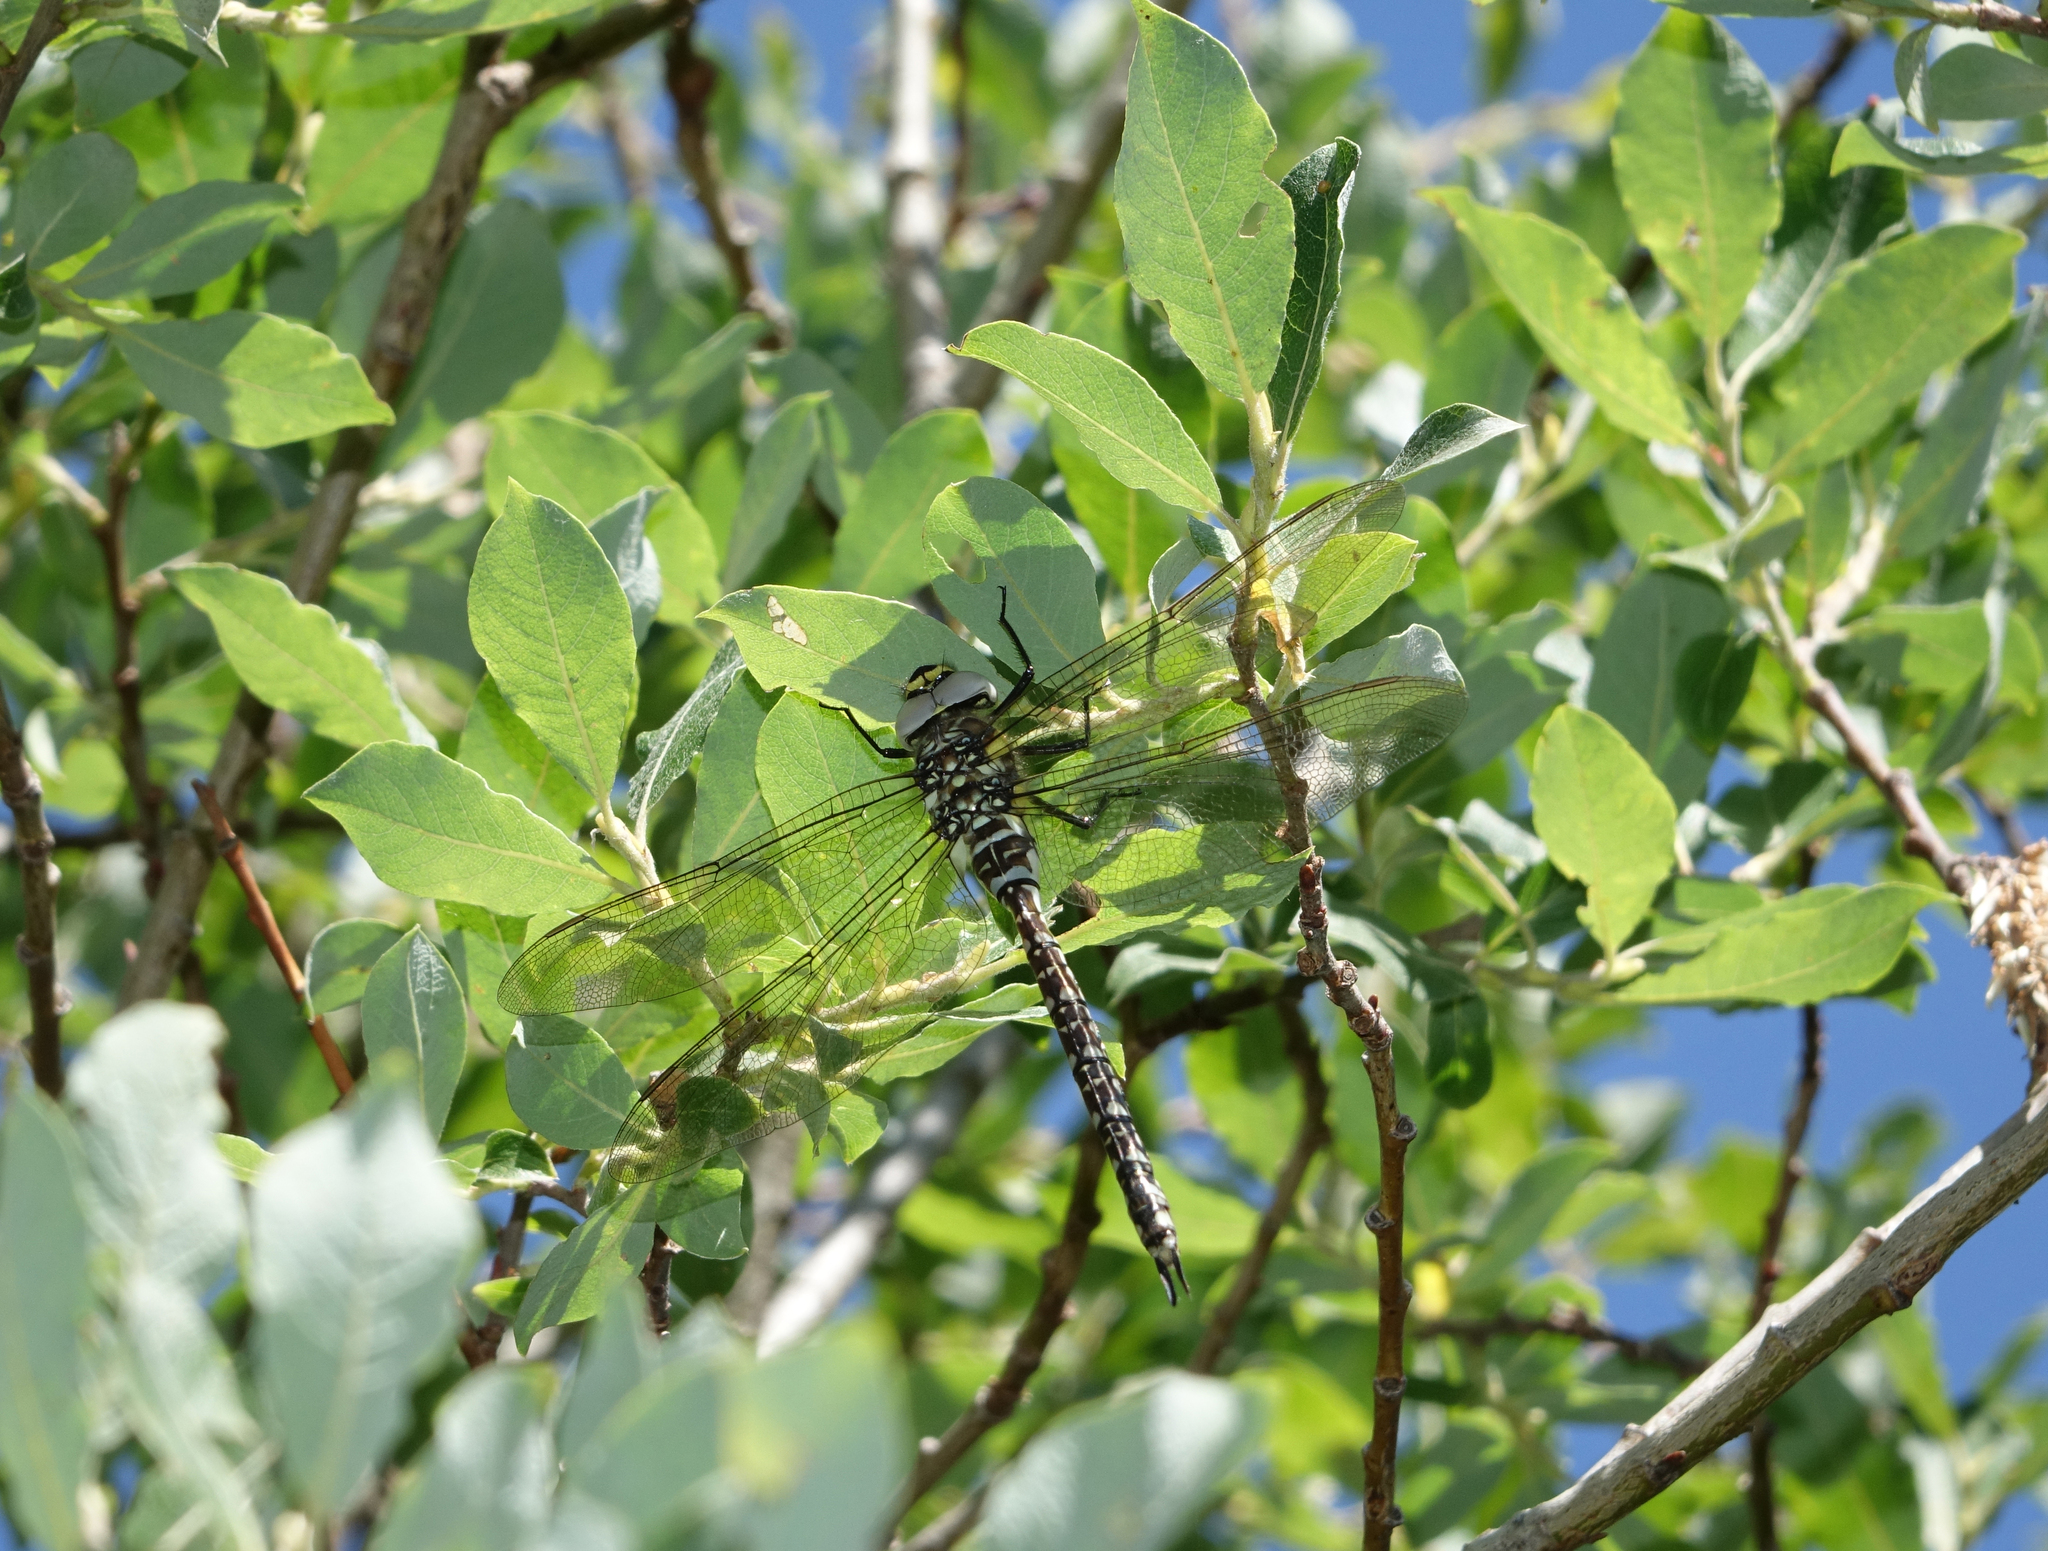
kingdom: Animalia
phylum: Arthropoda
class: Insecta
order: Odonata
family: Aeshnidae
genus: Aeshna
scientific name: Aeshna juncea
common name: Moorland hawker
